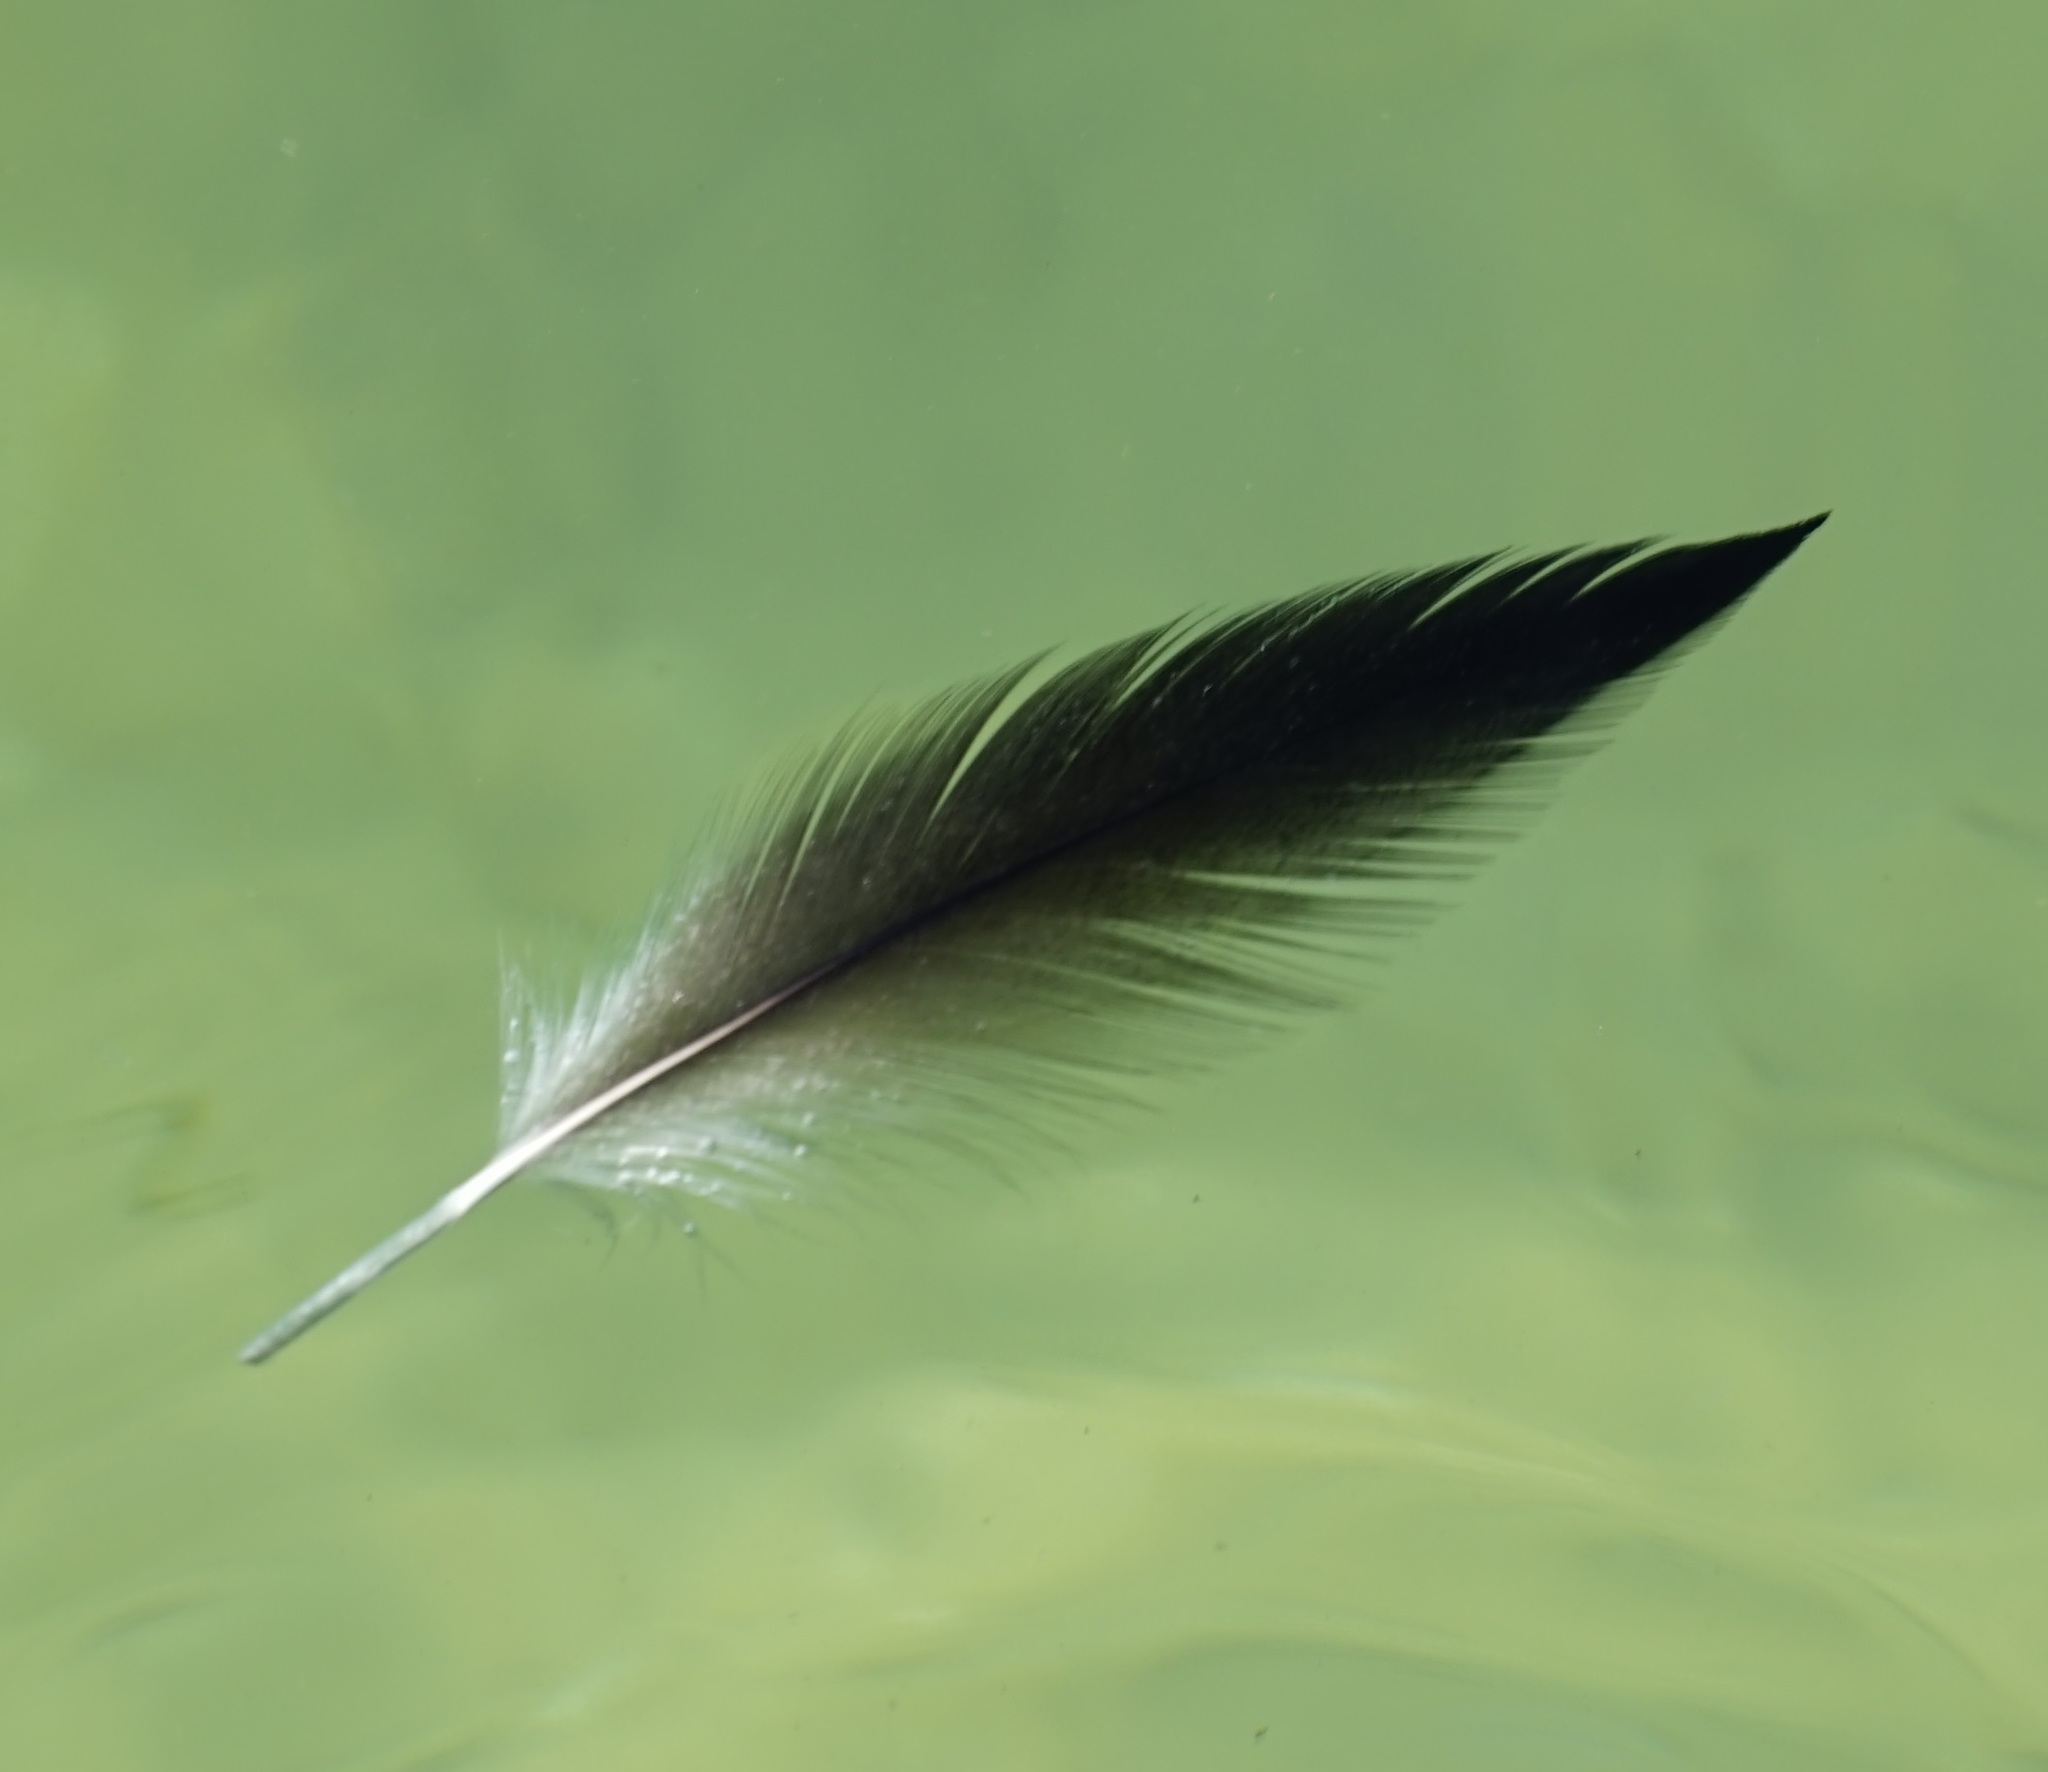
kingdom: Animalia
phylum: Chordata
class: Aves
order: Pelecaniformes
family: Pelecanidae
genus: Pelecanus
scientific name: Pelecanus conspicillatus
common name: Australian pelican
